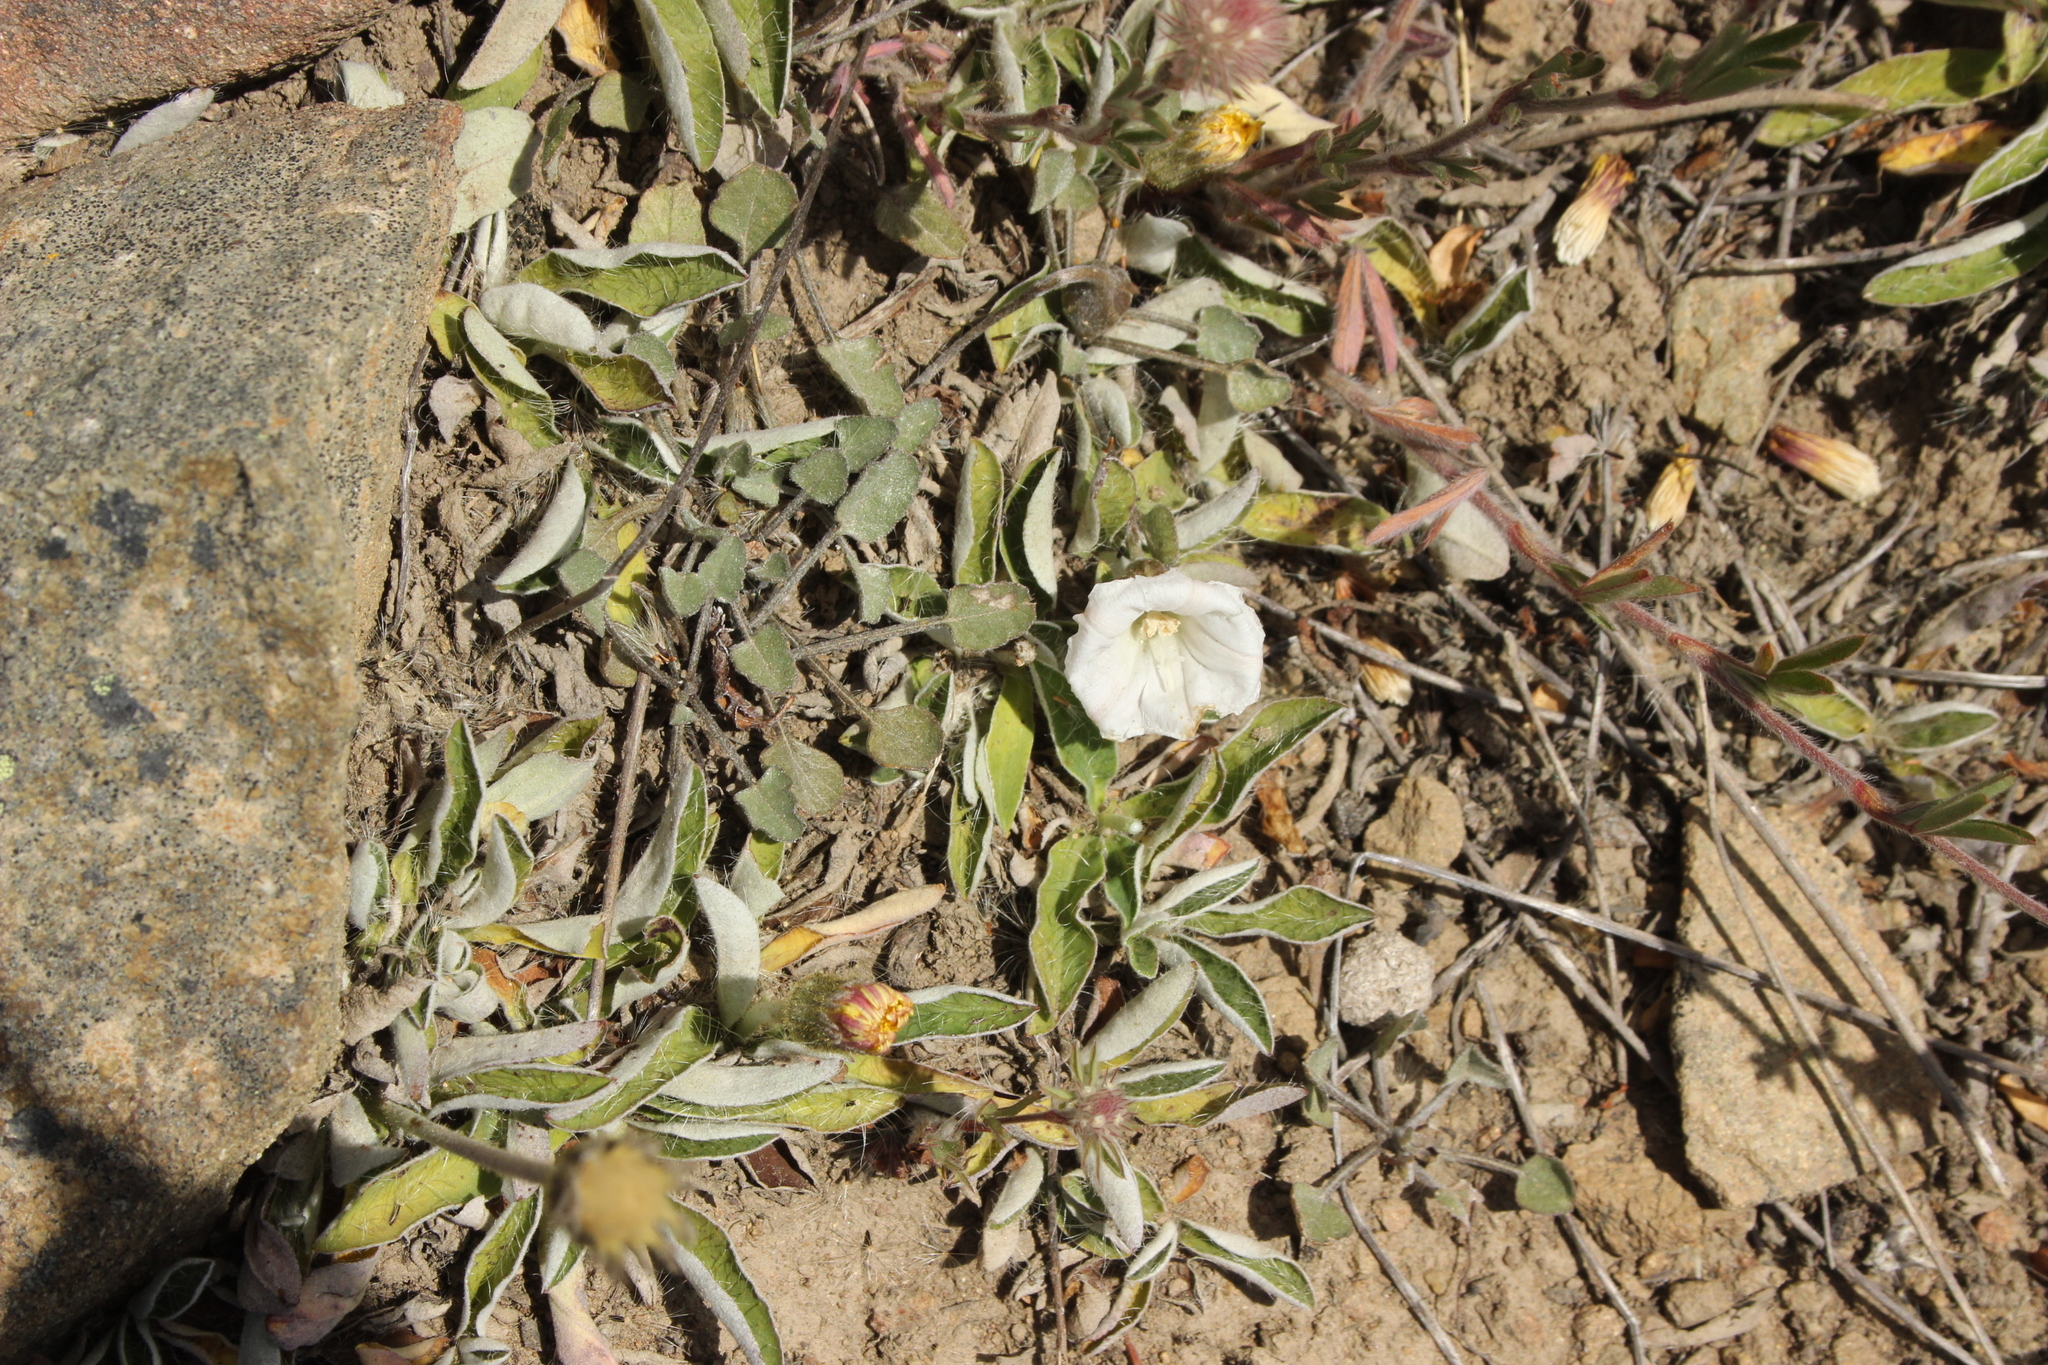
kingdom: Plantae
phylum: Tracheophyta
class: Magnoliopsida
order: Solanales
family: Convolvulaceae
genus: Convolvulus
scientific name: Convolvulus waitaha
